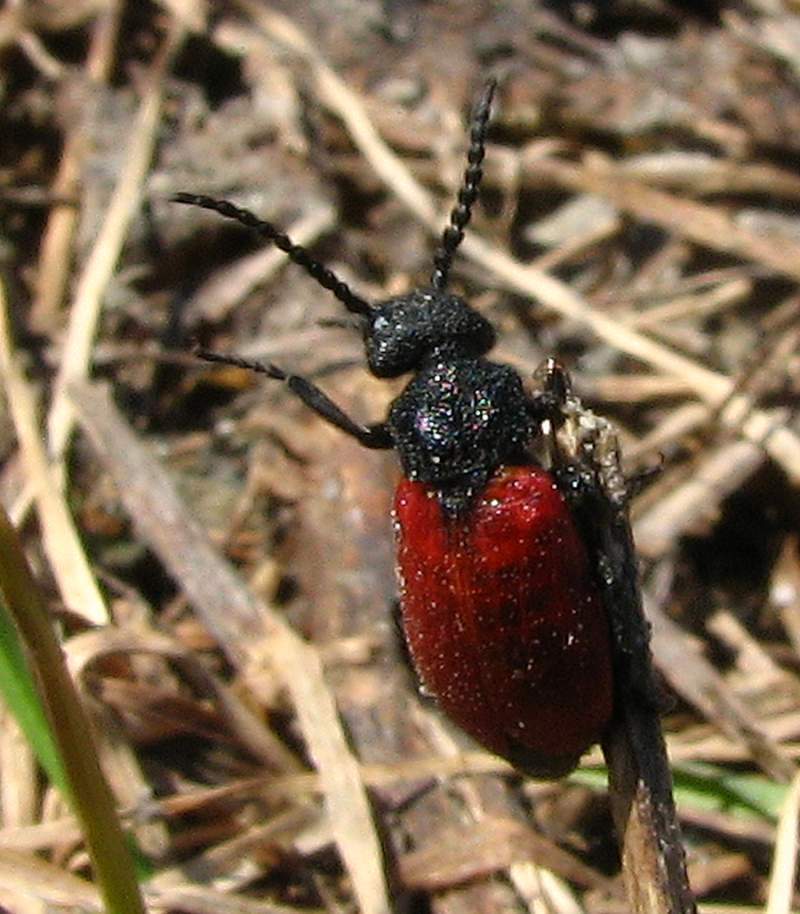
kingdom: Animalia
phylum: Arthropoda
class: Insecta
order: Coleoptera
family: Meloidae
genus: Tricrania
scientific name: Tricrania sanguinipennis
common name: Blood-winged blister beetle
